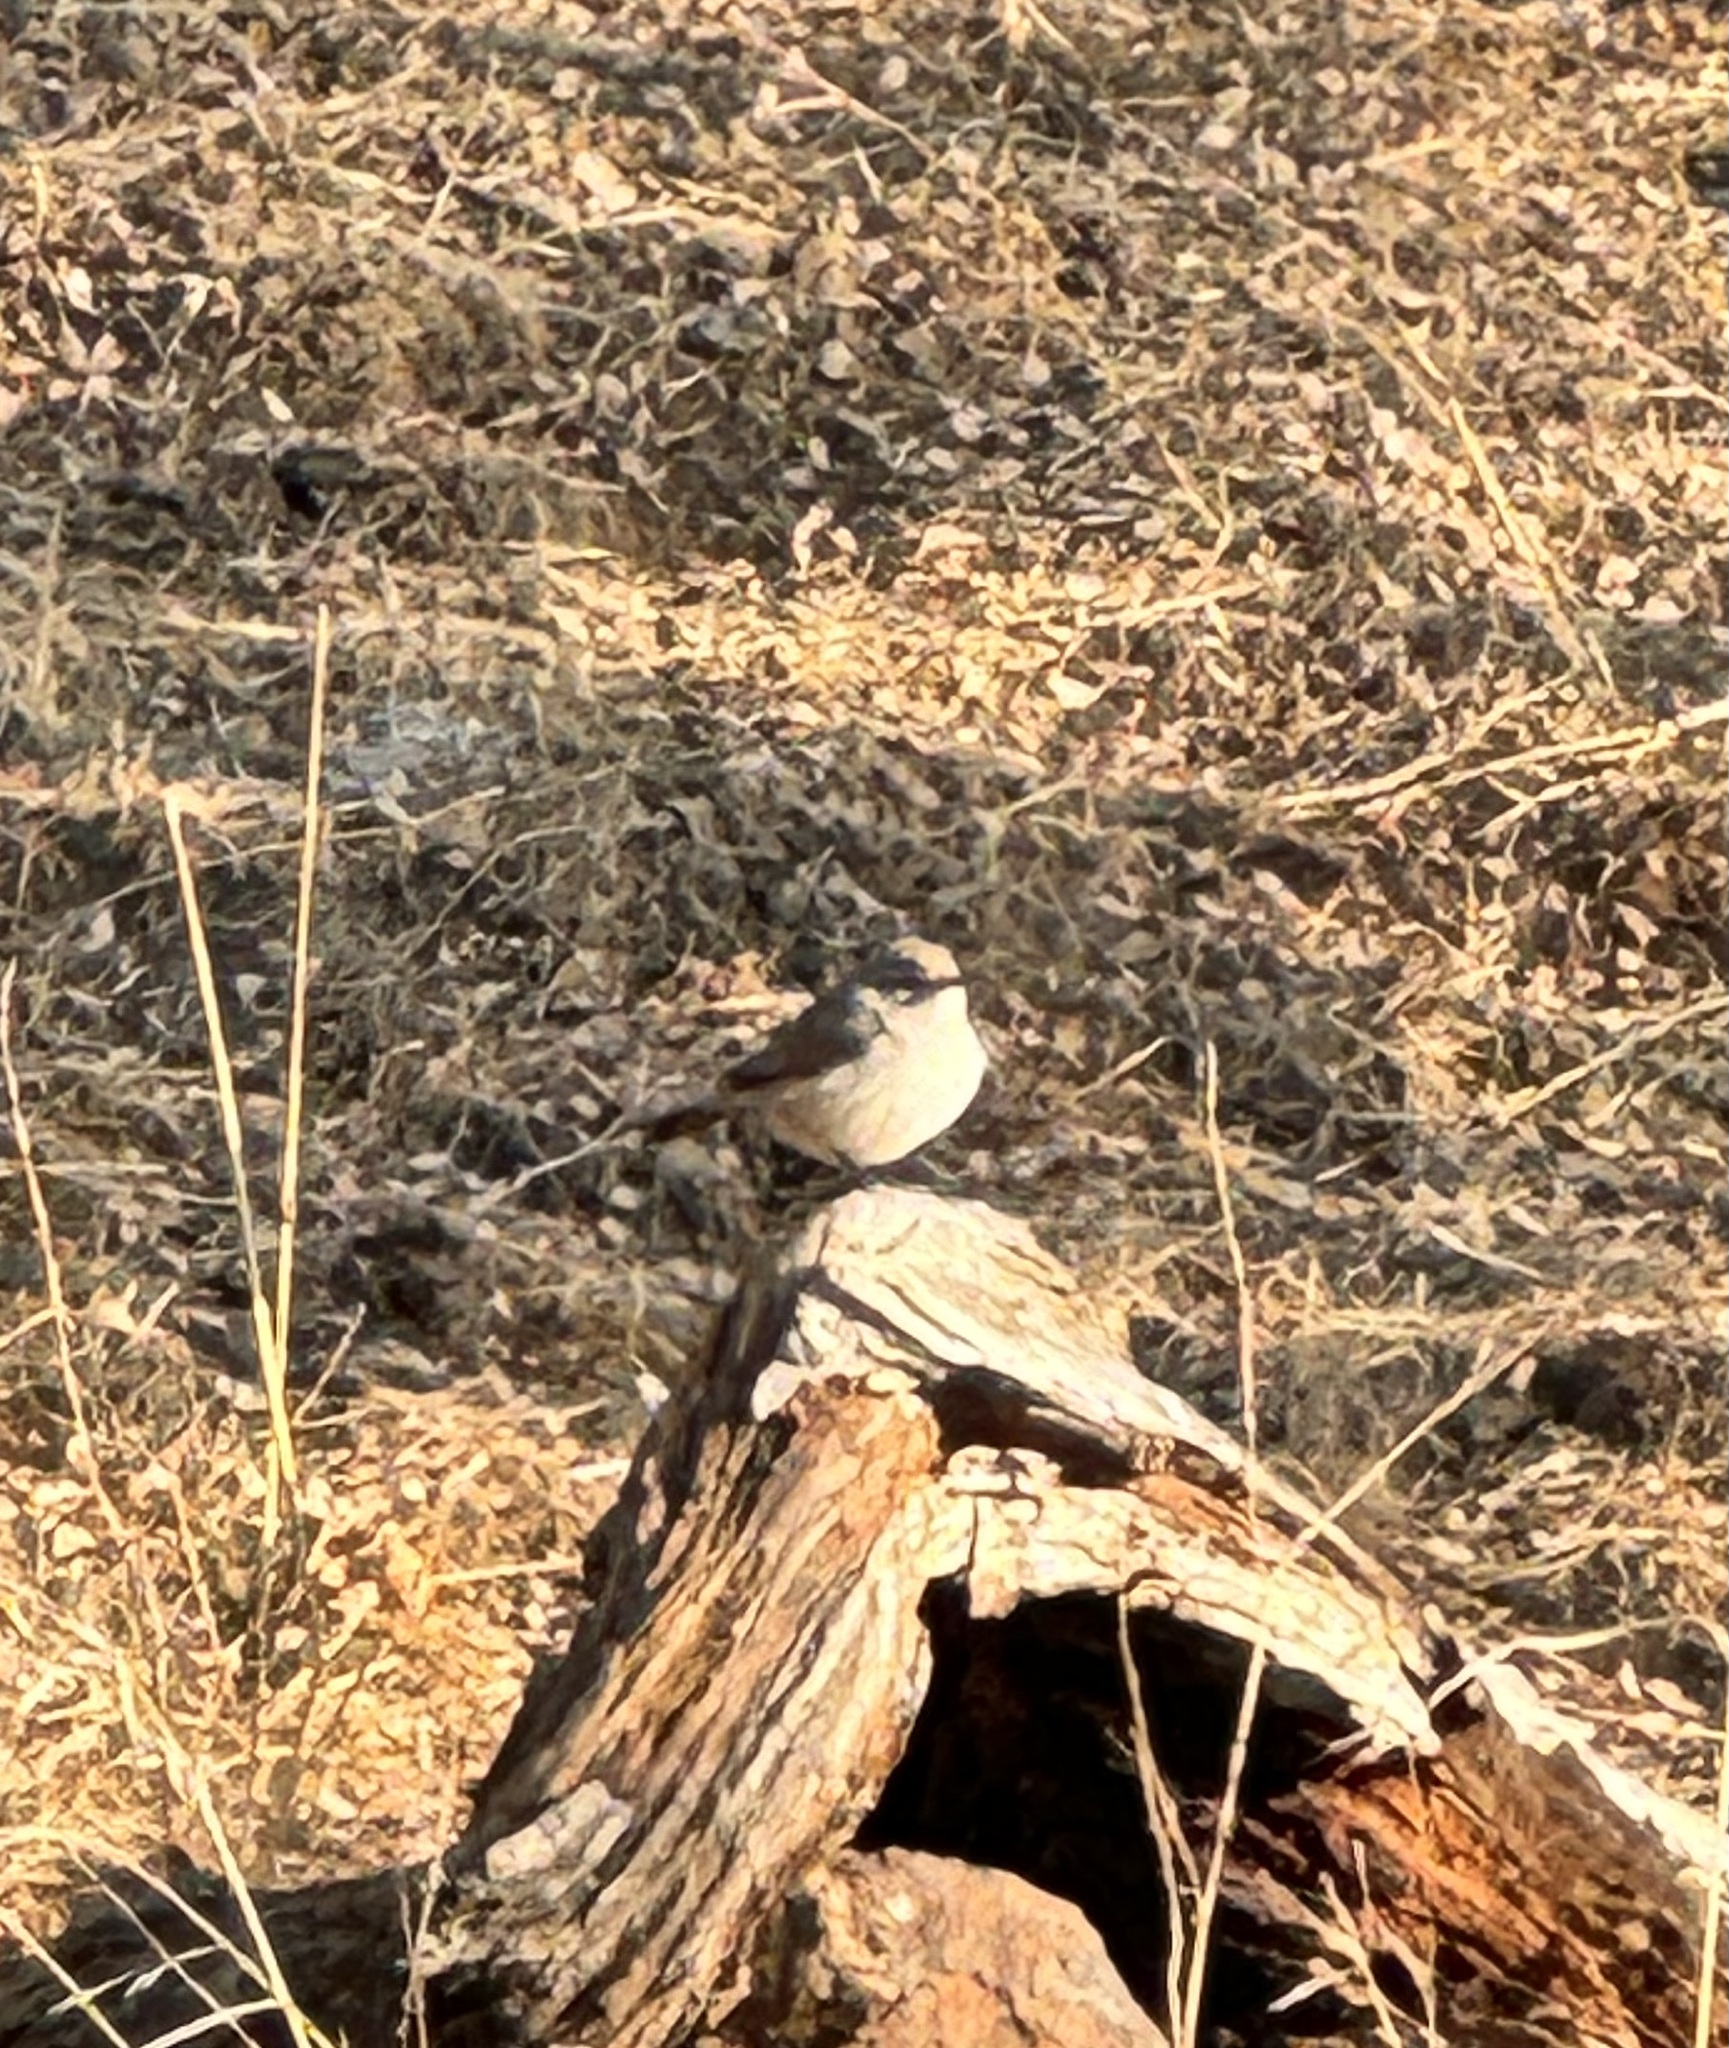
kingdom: Animalia
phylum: Chordata
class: Aves
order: Passeriformes
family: Troglodytidae
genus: Salpinctes
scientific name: Salpinctes obsoletus
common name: Rock wren
